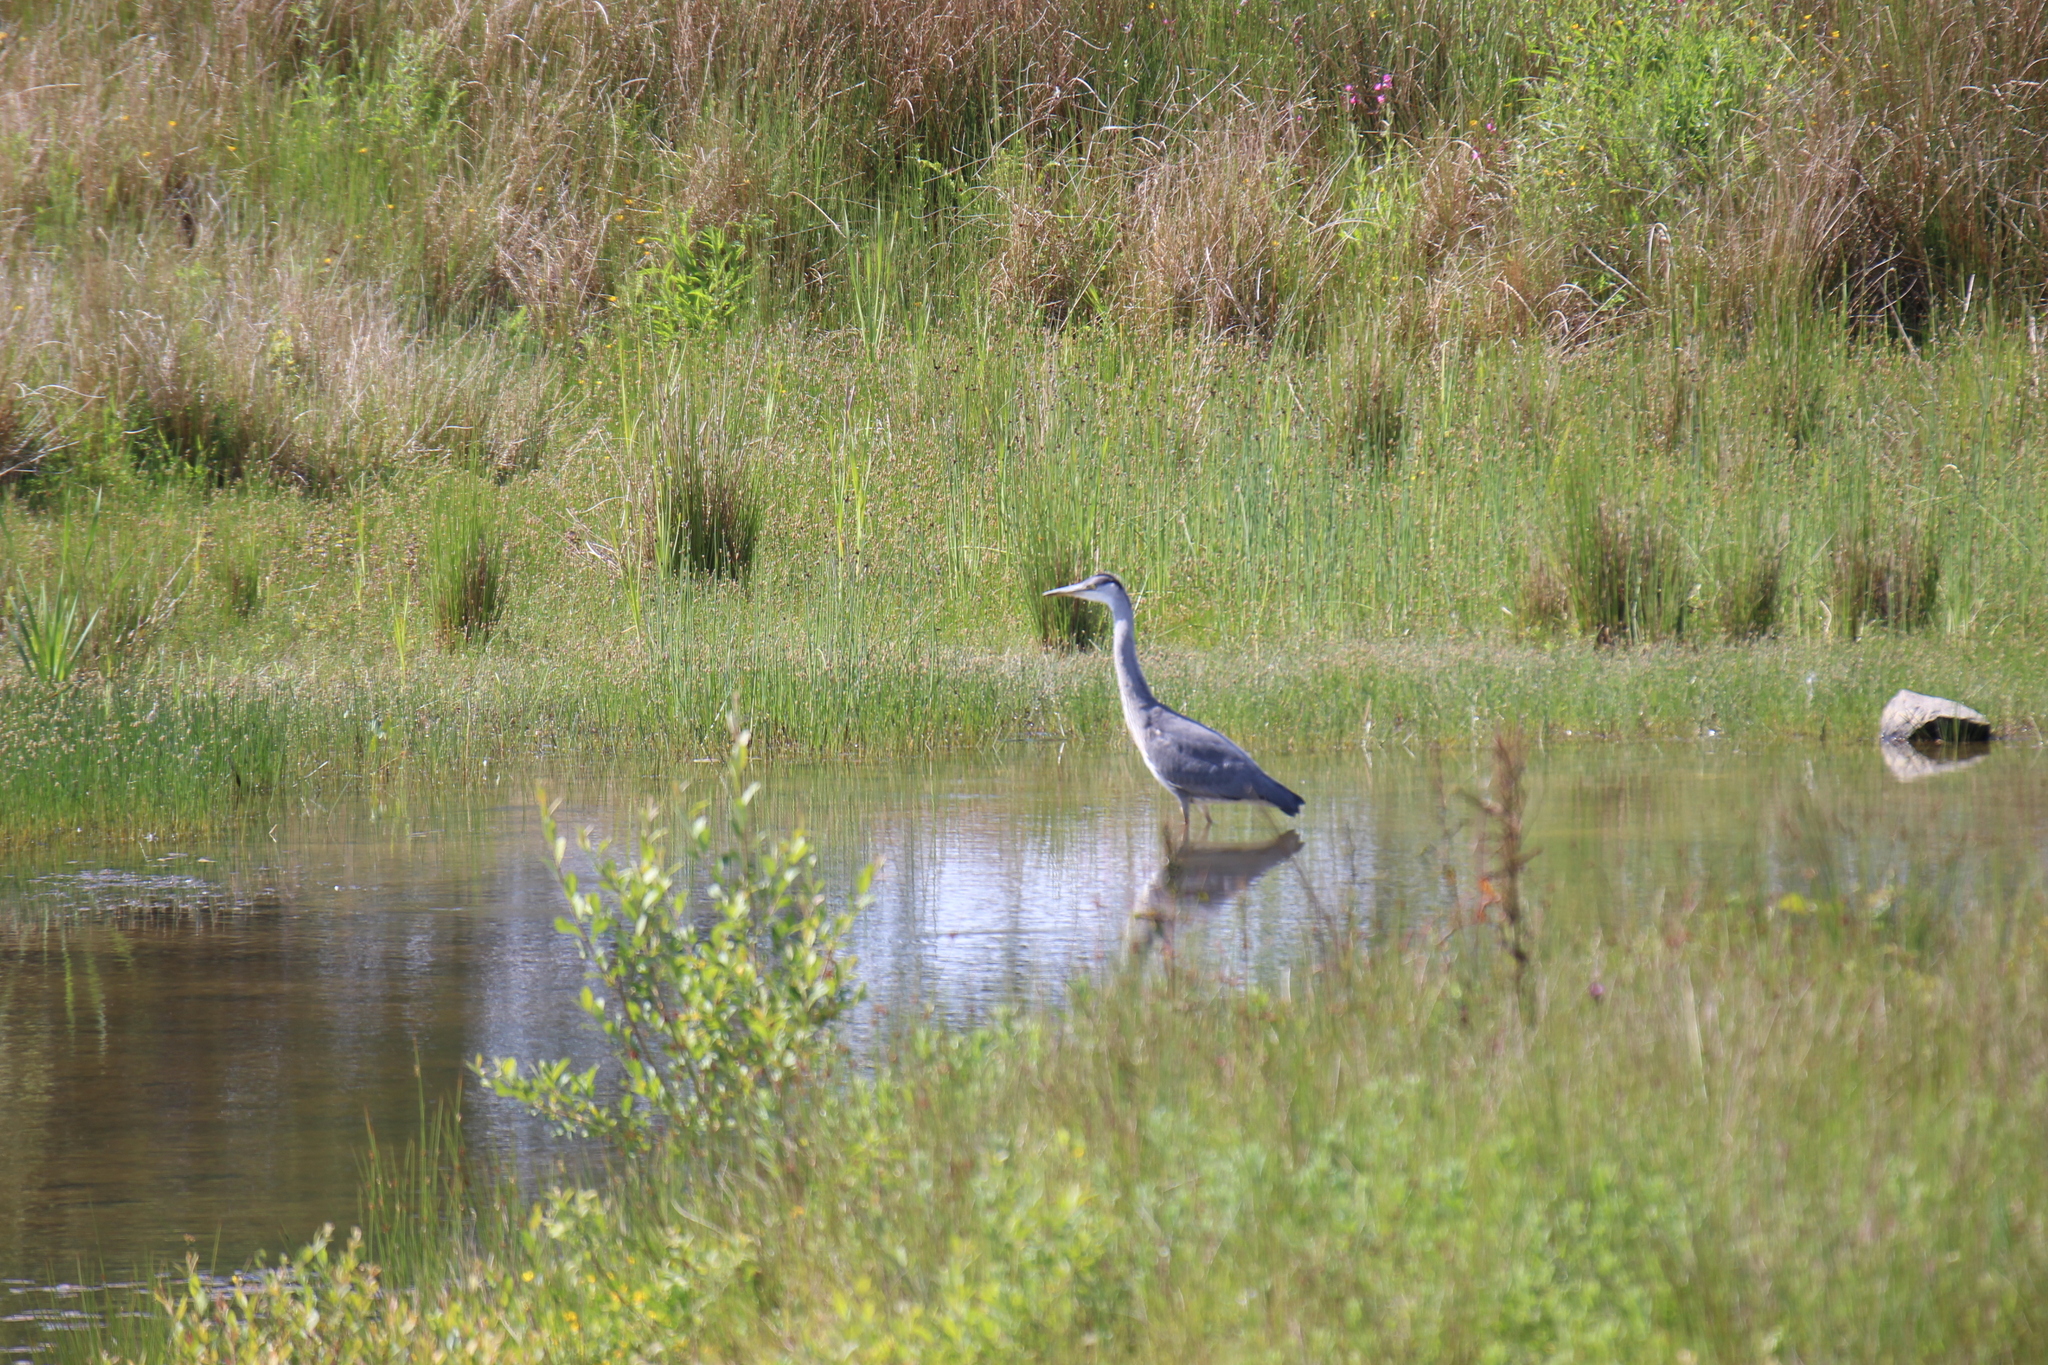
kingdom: Animalia
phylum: Chordata
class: Aves
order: Pelecaniformes
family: Ardeidae
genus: Ardea
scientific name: Ardea cinerea
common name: Grey heron
